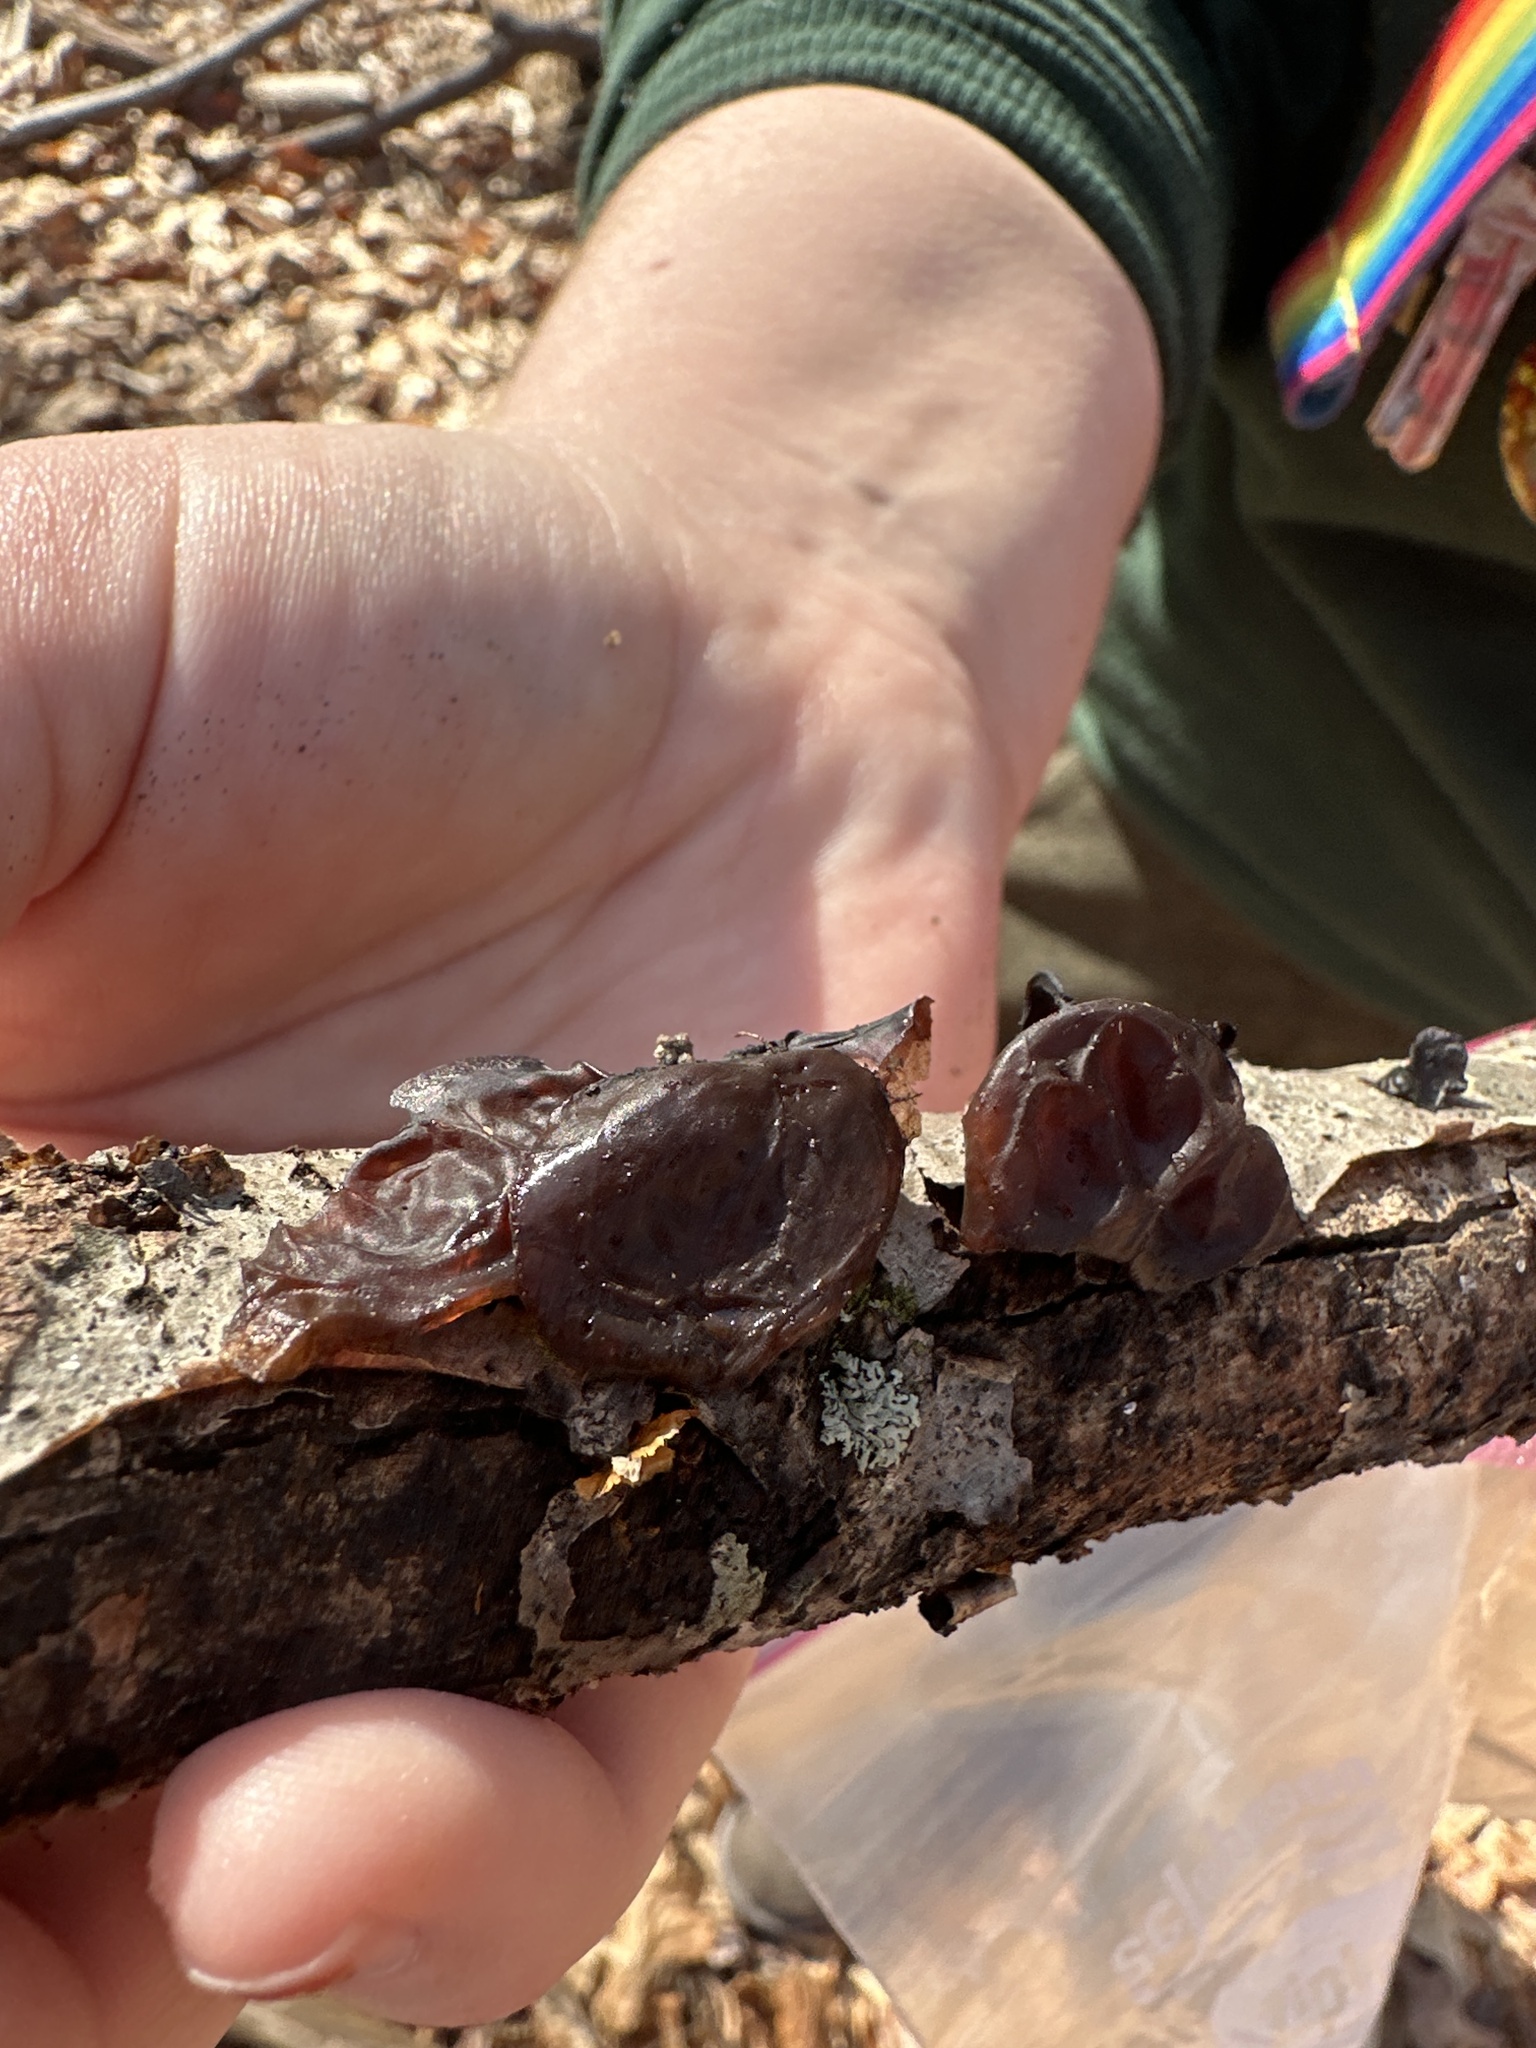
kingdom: Fungi
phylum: Basidiomycota
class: Agaricomycetes
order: Auriculariales
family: Auriculariaceae
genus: Exidia
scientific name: Exidia
